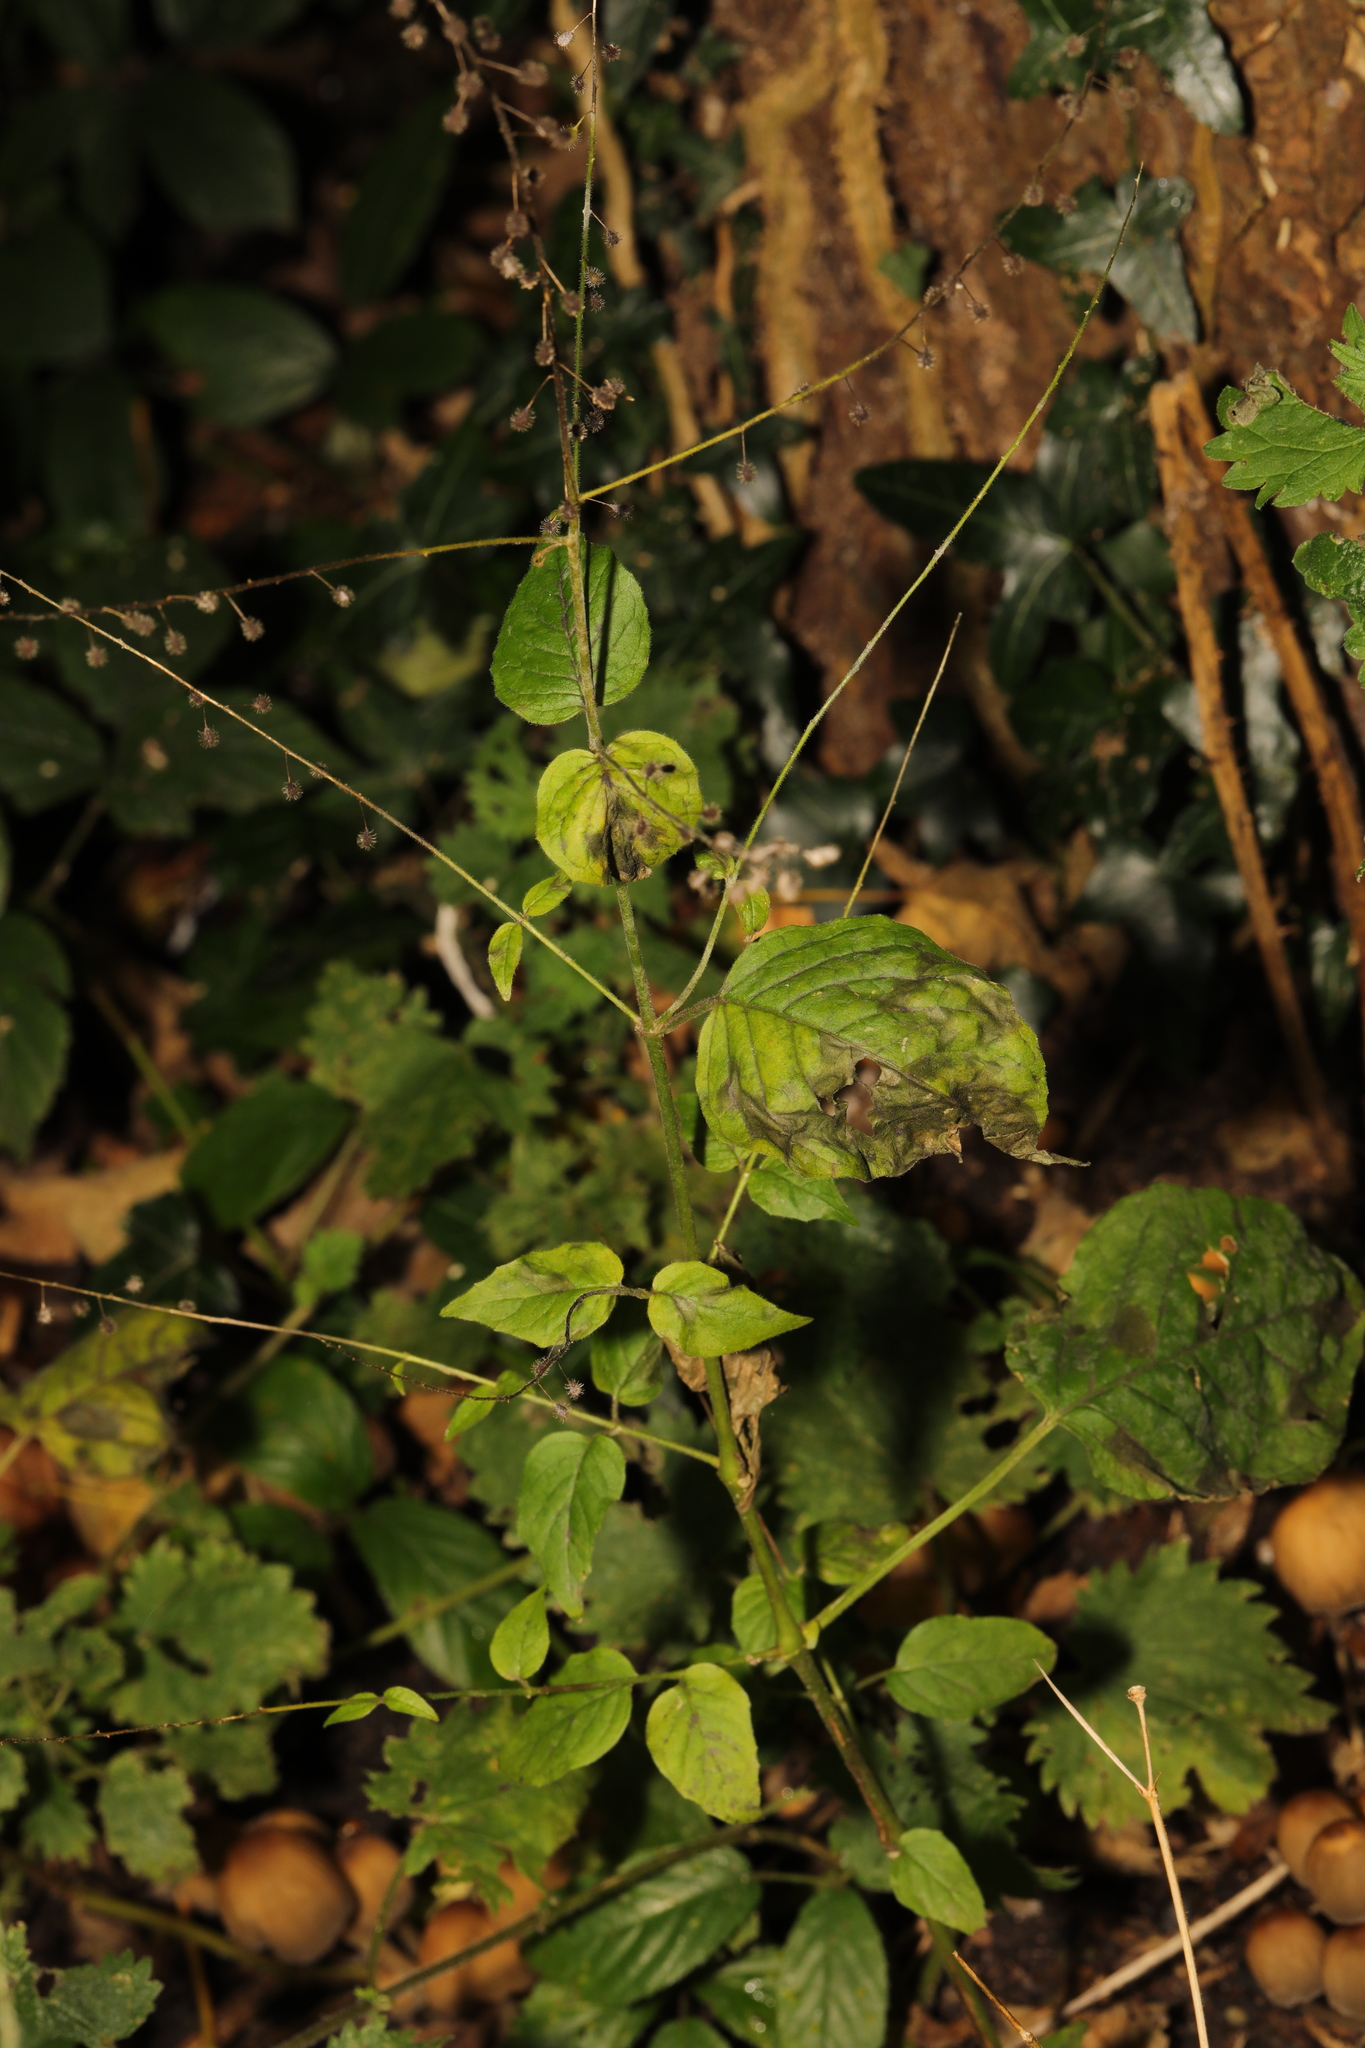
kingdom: Plantae
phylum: Tracheophyta
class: Magnoliopsida
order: Myrtales
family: Onagraceae
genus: Circaea
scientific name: Circaea lutetiana
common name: Enchanter's-nightshade
